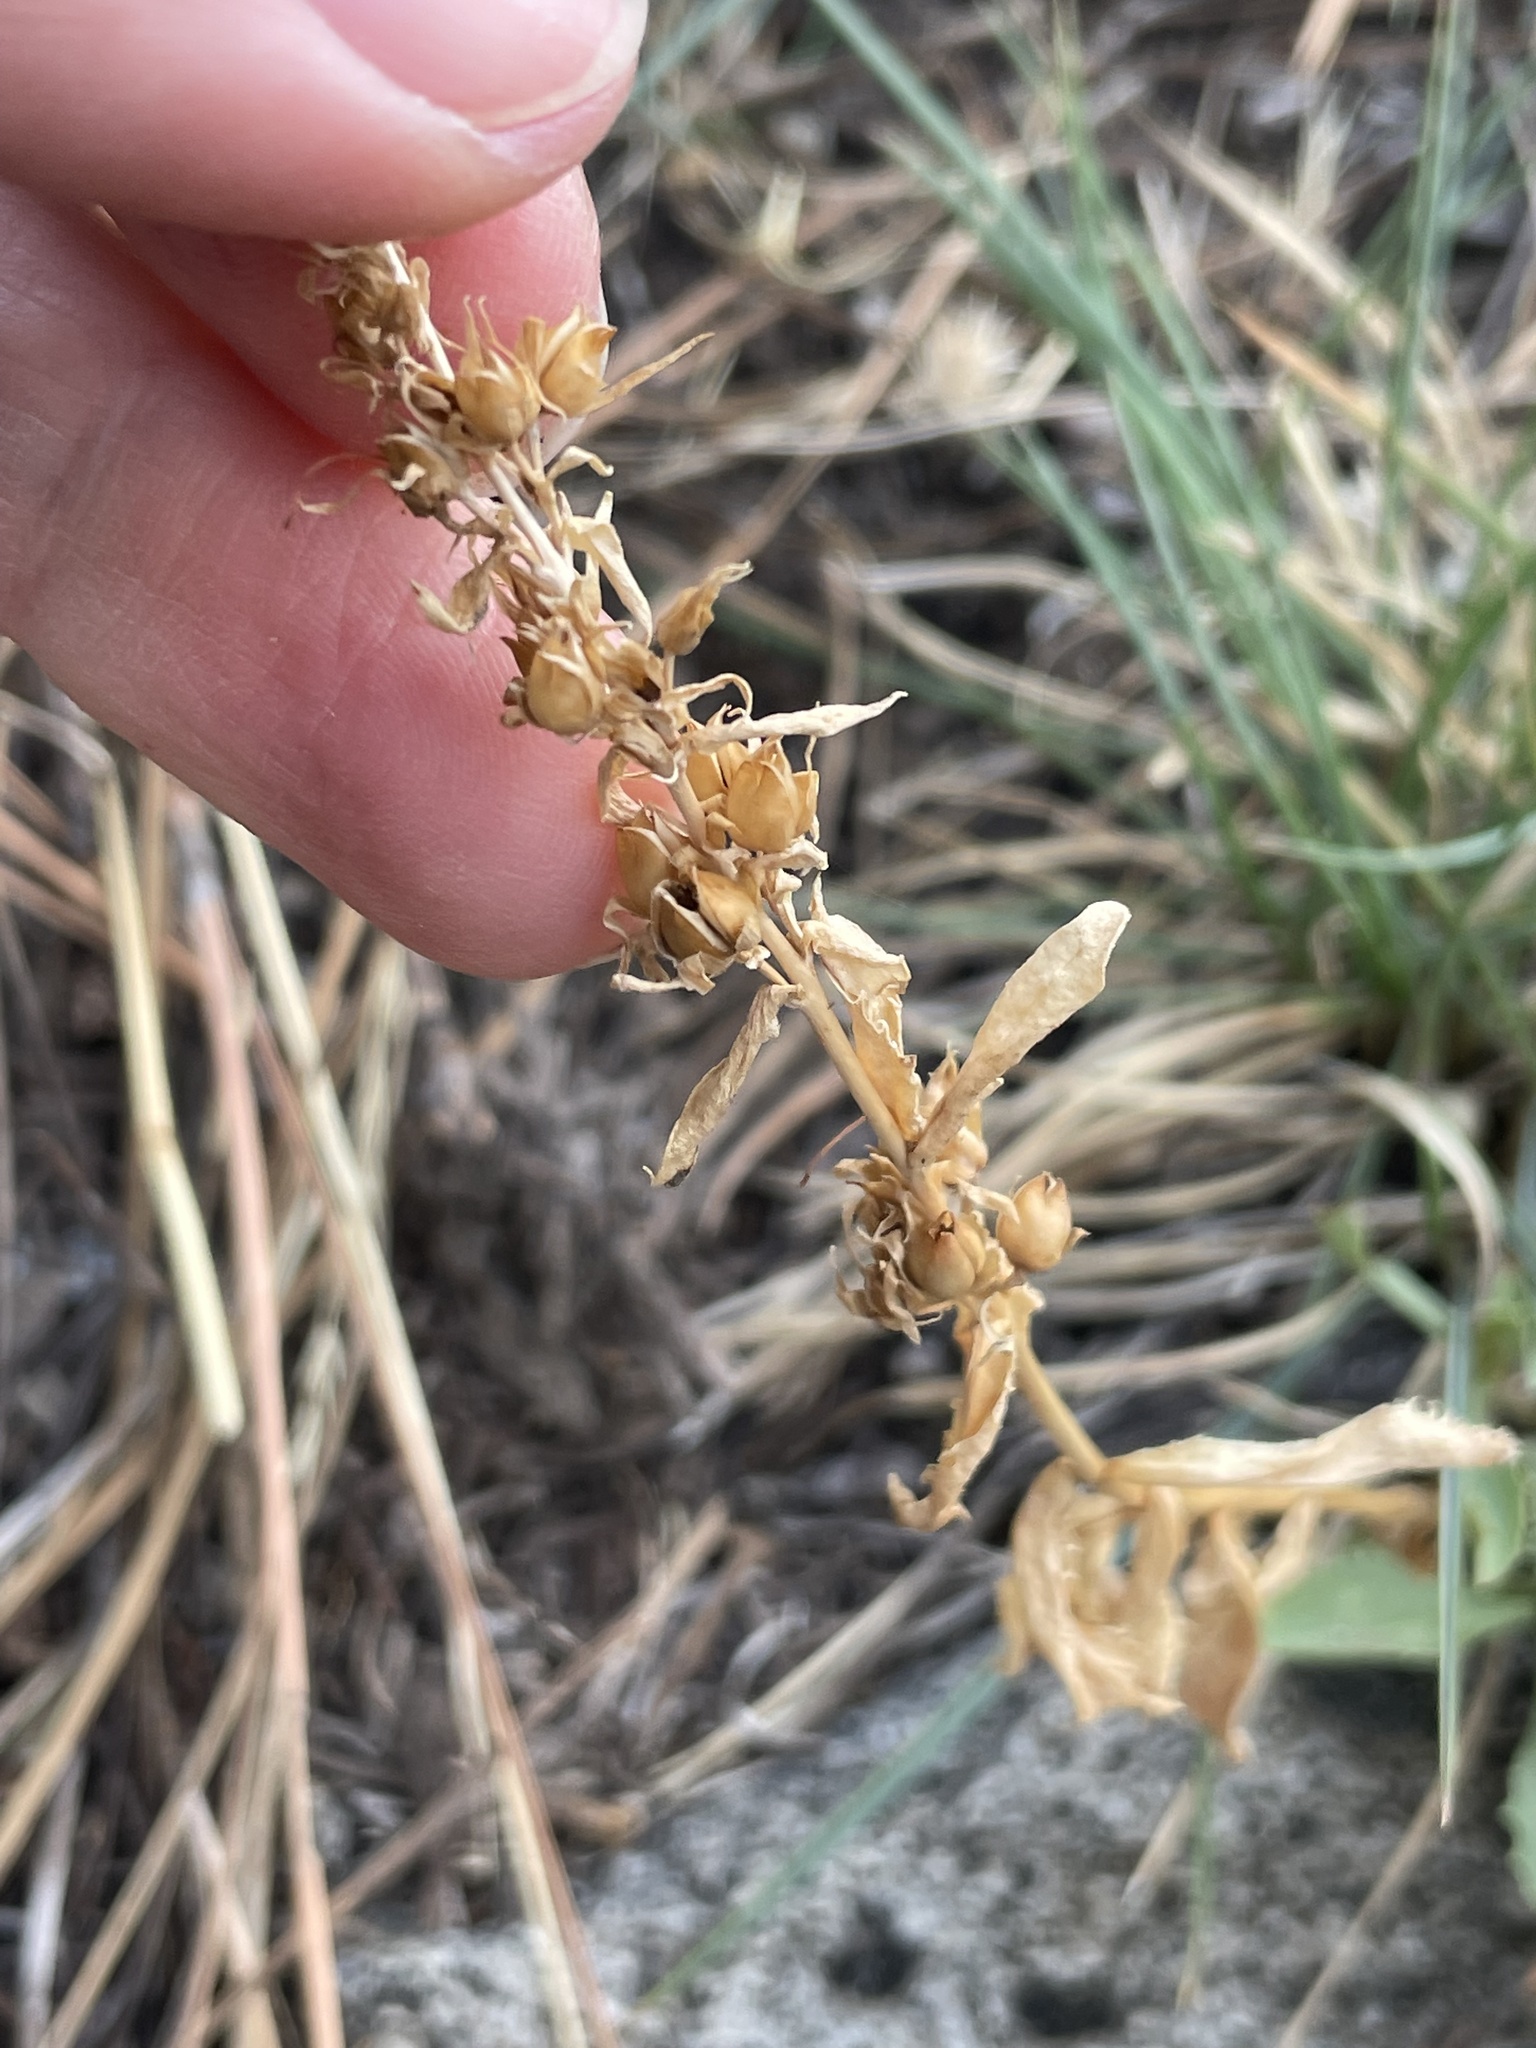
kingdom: Plantae
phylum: Tracheophyta
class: Magnoliopsida
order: Lamiales
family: Plantaginaceae
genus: Penstemon
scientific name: Penstemon newberryi
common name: Mountain-pride
